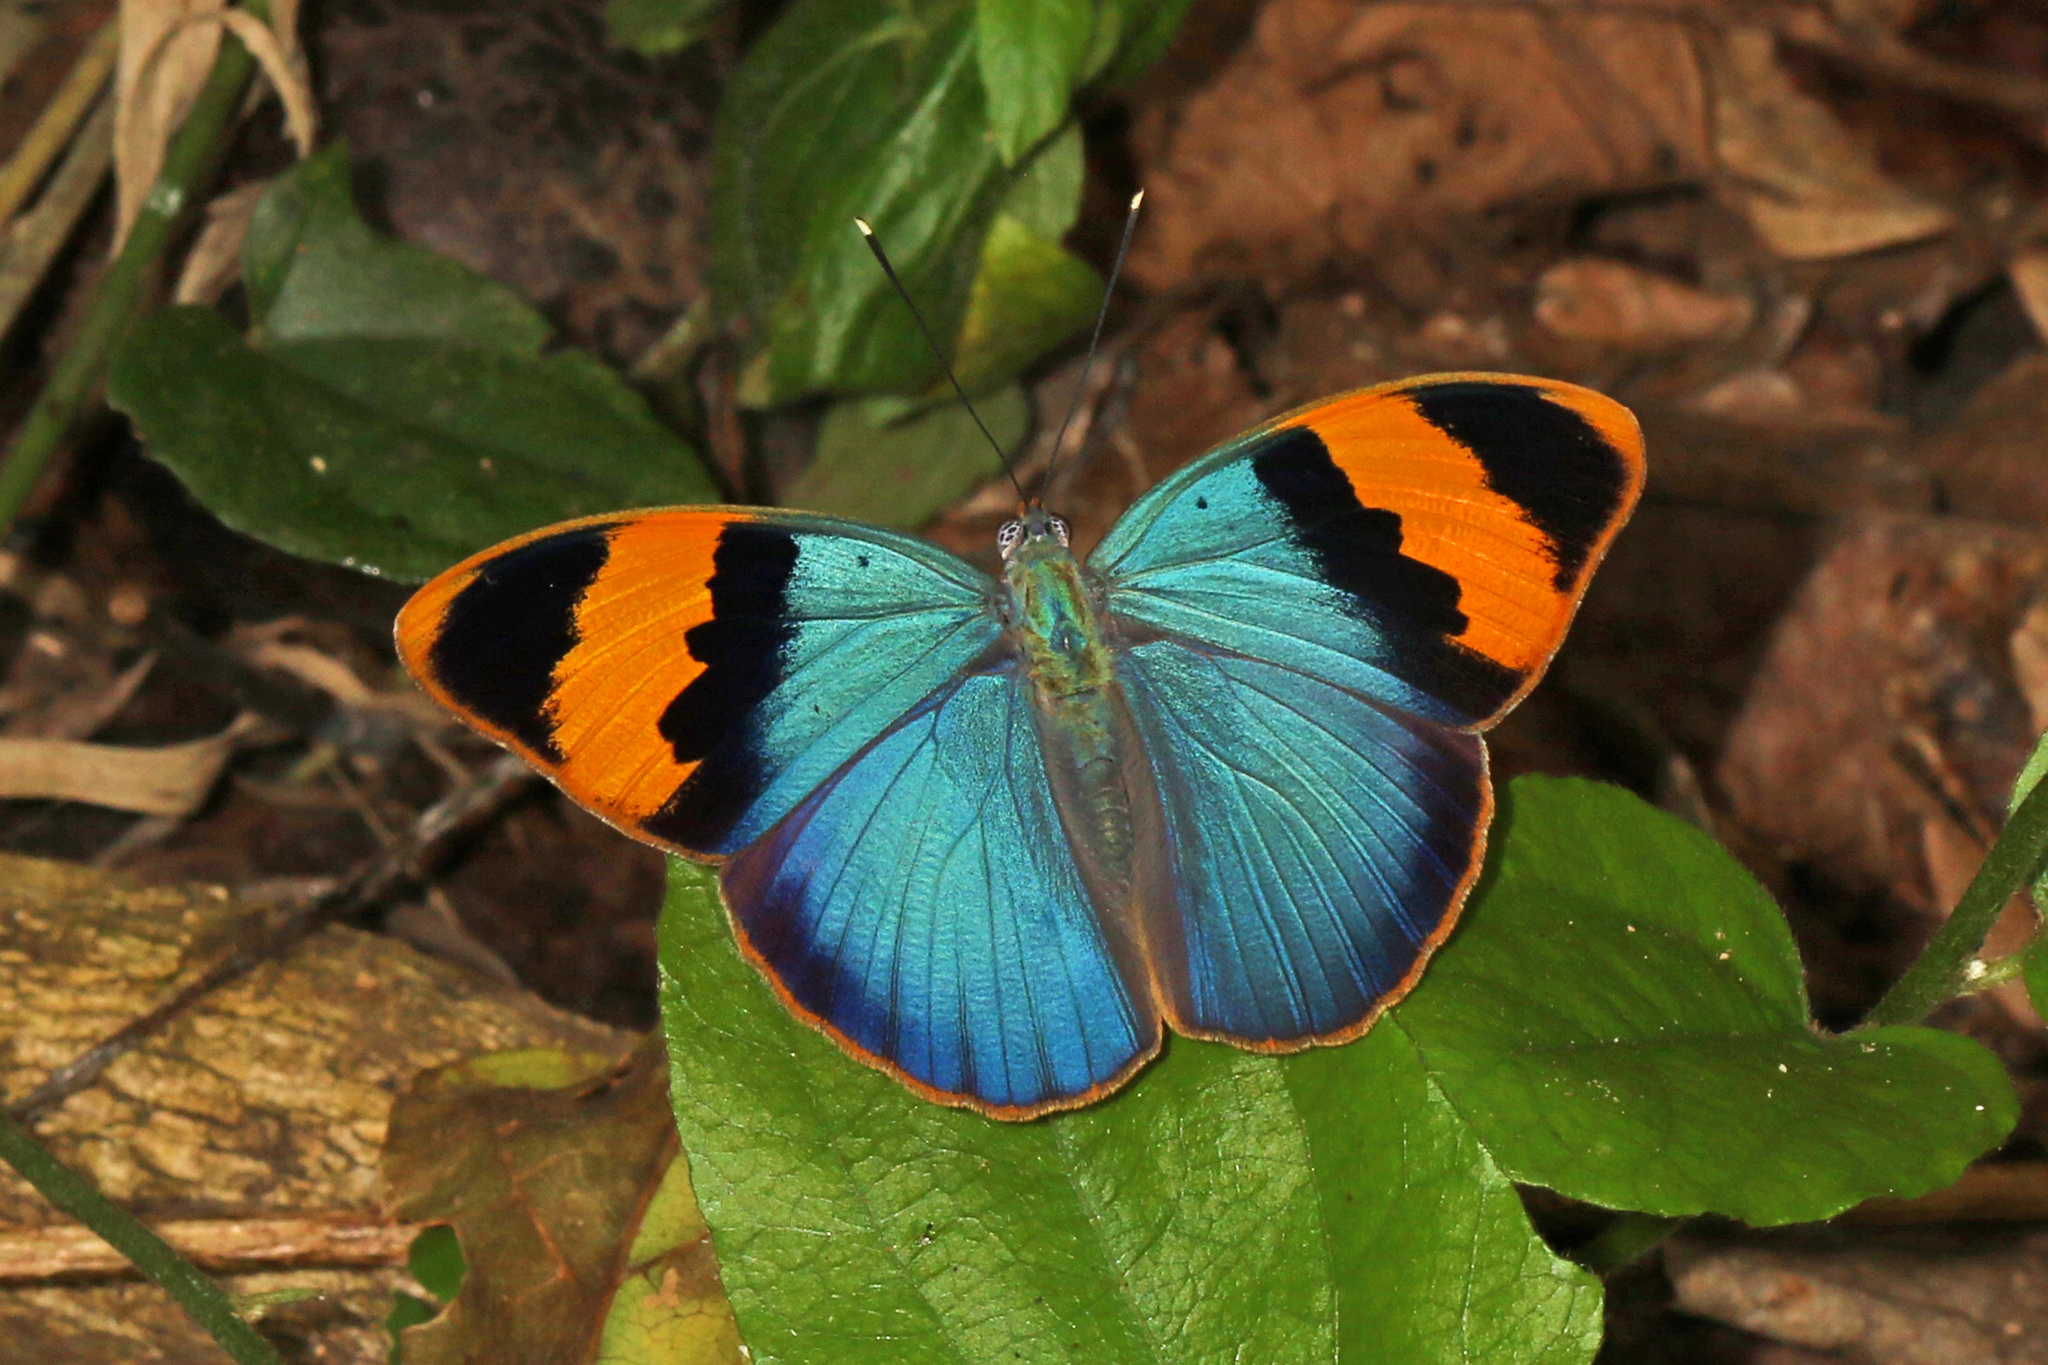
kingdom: Animalia
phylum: Arthropoda
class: Insecta
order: Lepidoptera
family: Nymphalidae
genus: Euphaedra
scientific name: Euphaedra neophron
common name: Gold-banded forester
